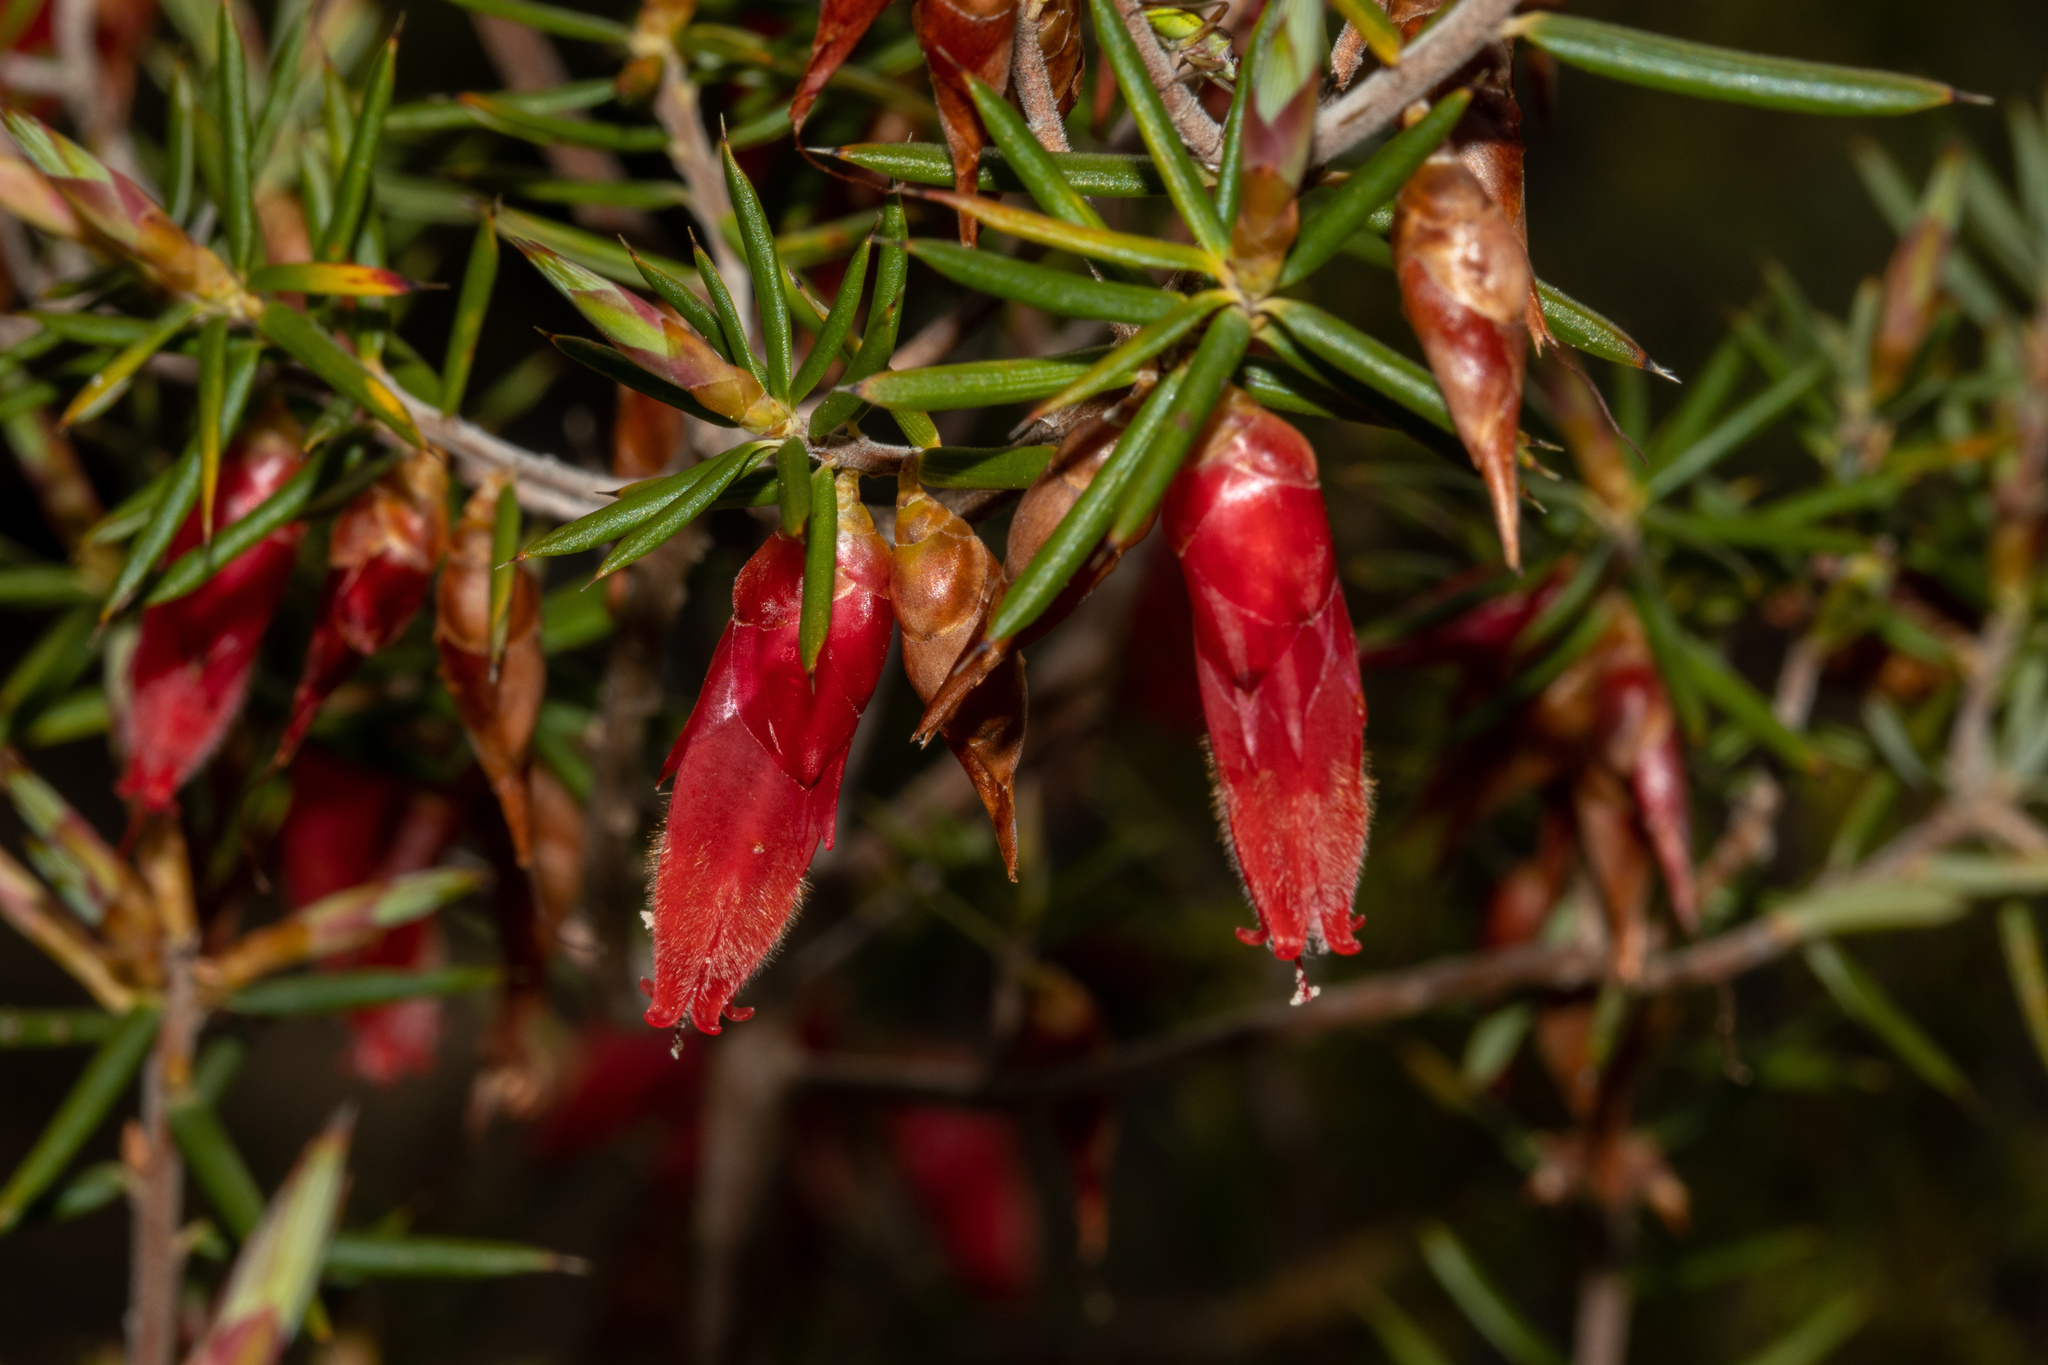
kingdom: Plantae
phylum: Tracheophyta
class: Magnoliopsida
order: Ericales
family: Ericaceae
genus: Stenanthera
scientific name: Stenanthera conostephioides
